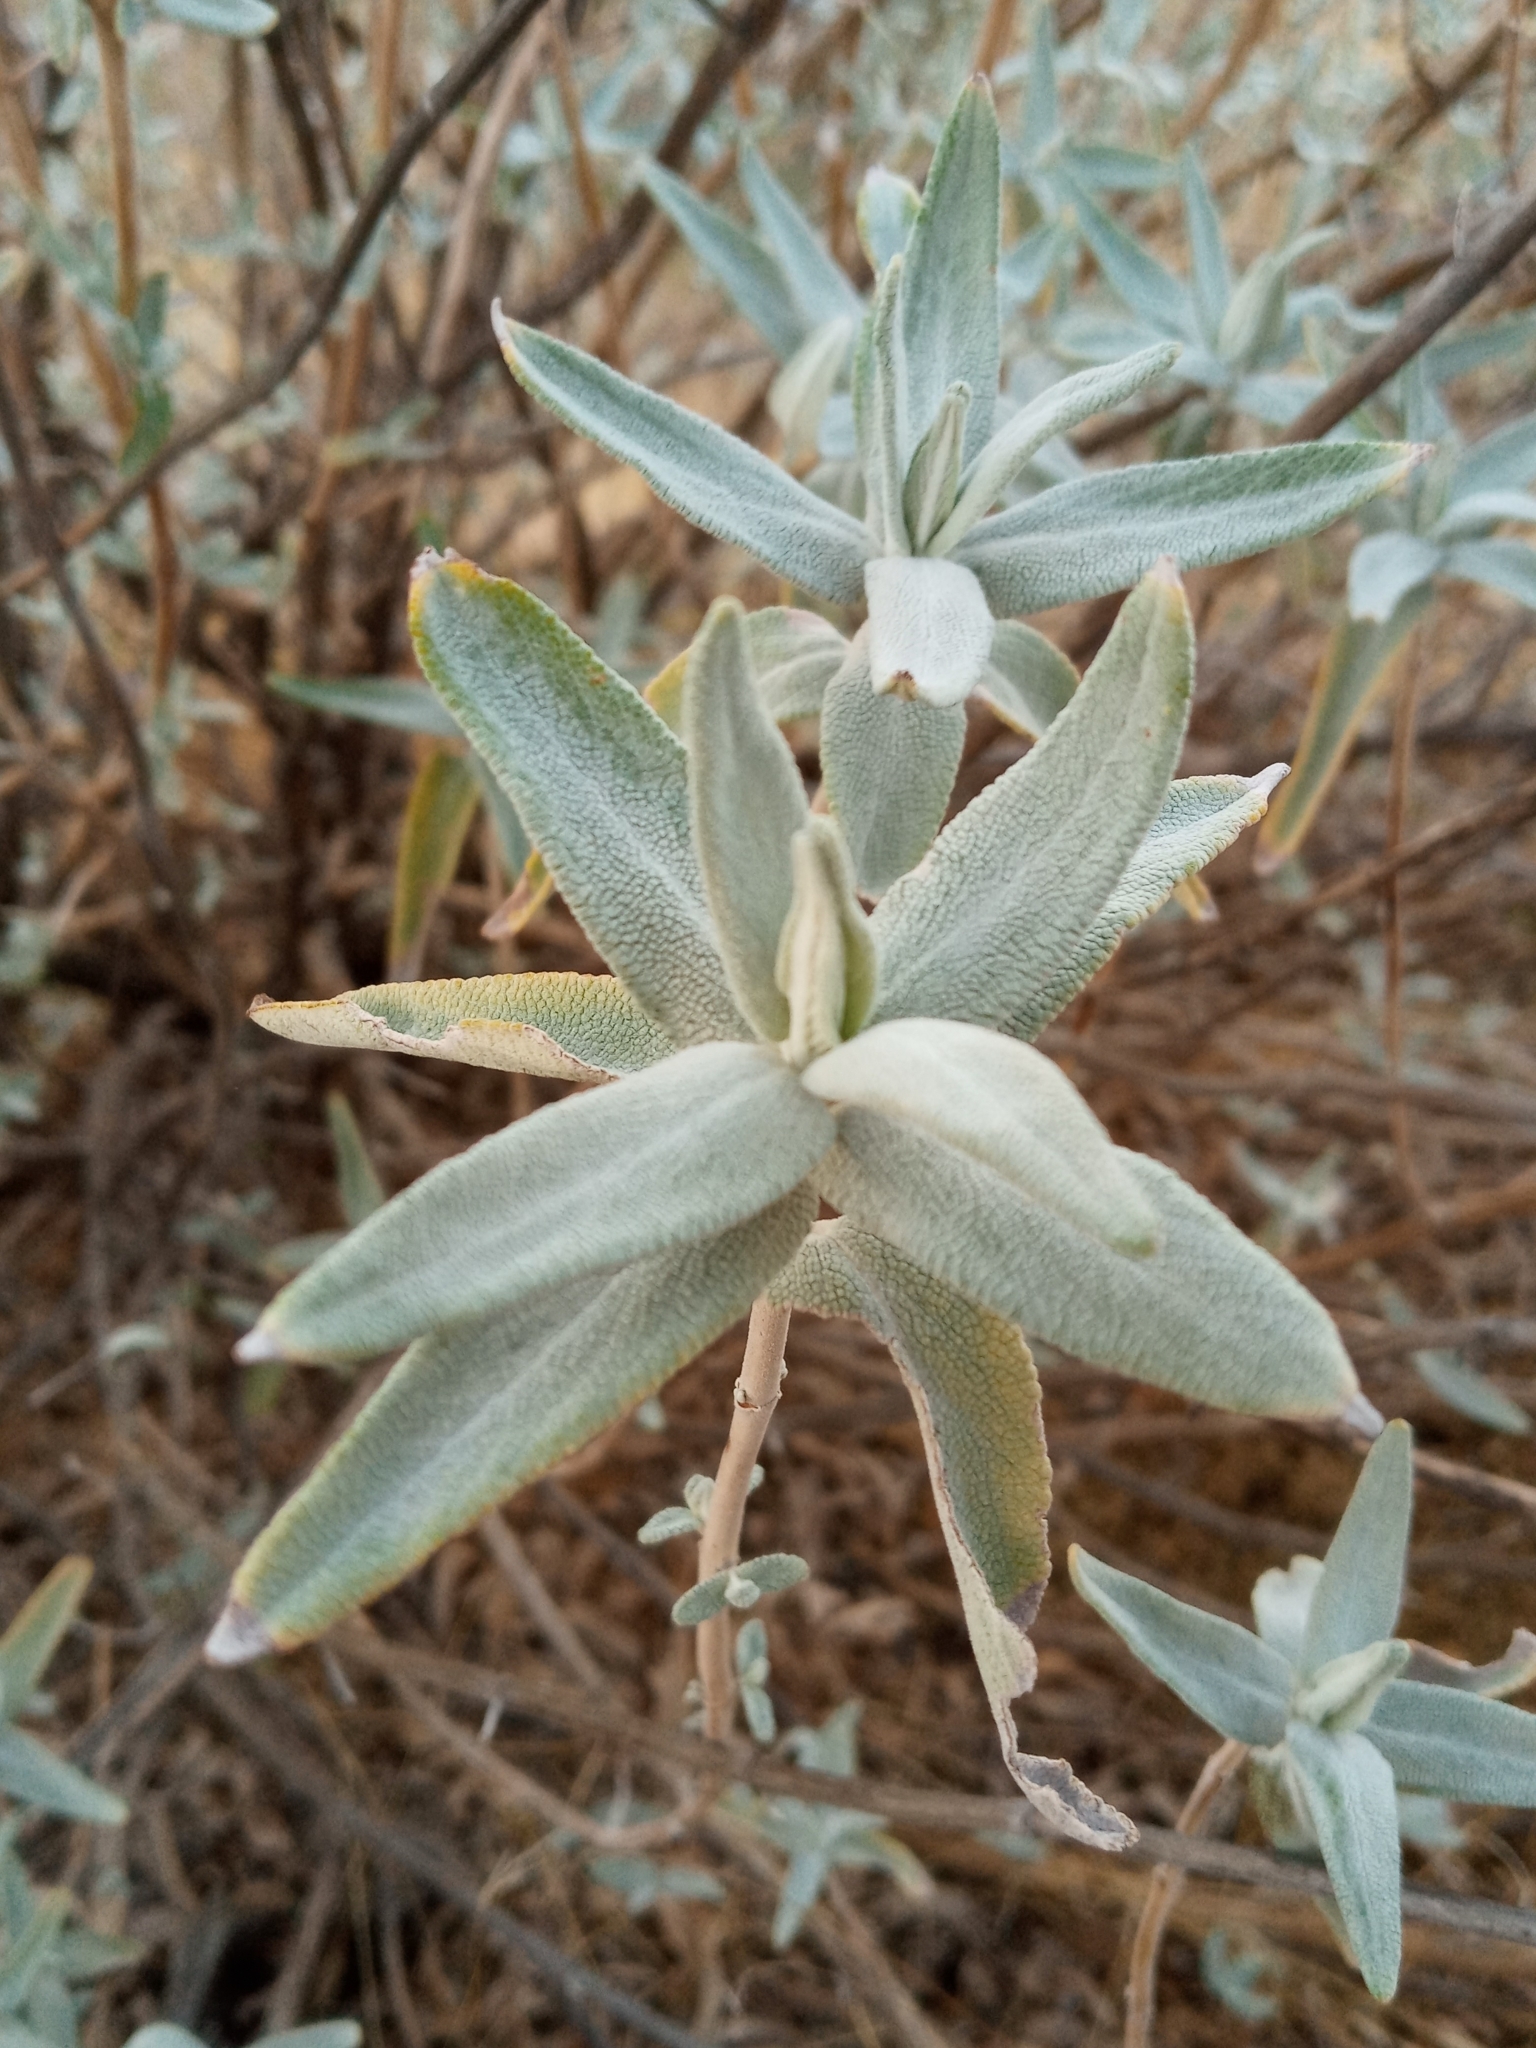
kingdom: Plantae
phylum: Tracheophyta
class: Magnoliopsida
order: Lamiales
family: Lamiaceae
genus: Salvia
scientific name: Salvia leucophylla
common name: Purple sage
